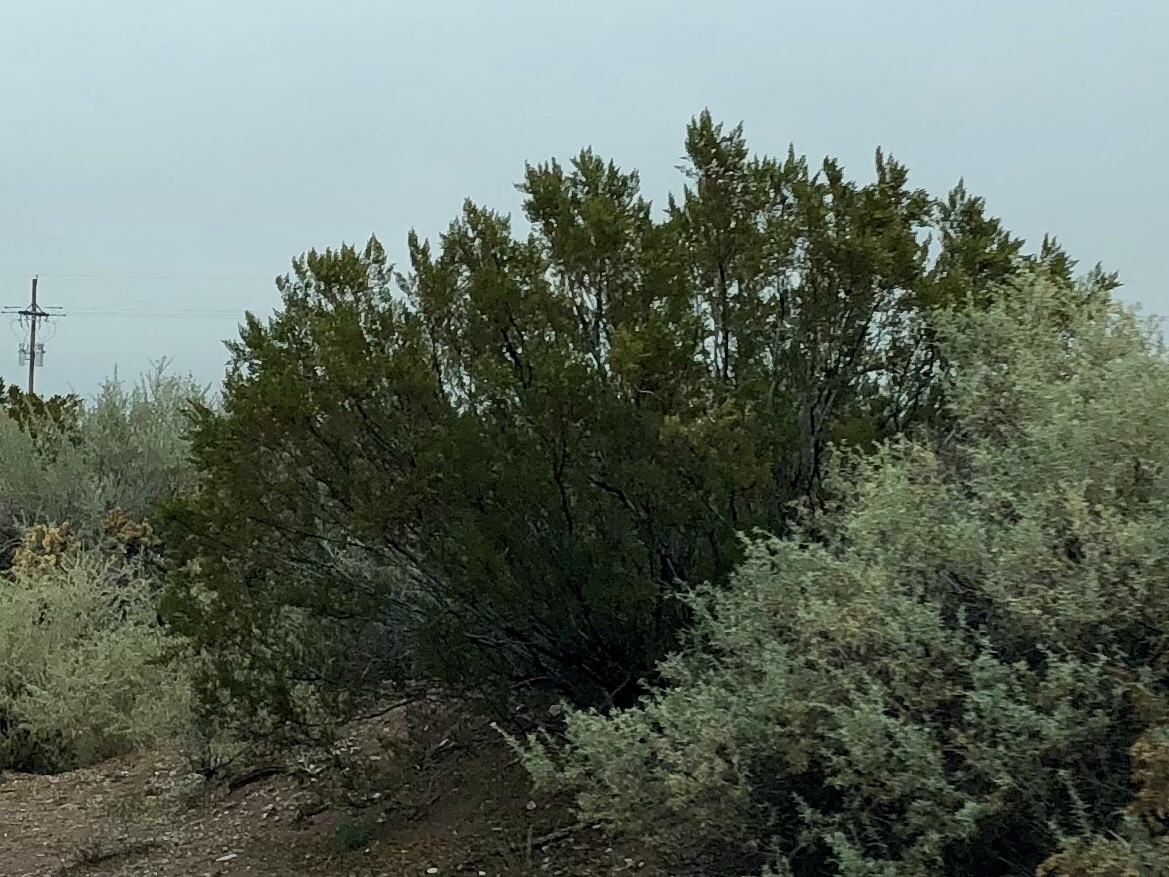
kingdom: Plantae
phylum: Tracheophyta
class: Magnoliopsida
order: Zygophyllales
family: Zygophyllaceae
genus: Larrea
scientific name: Larrea tridentata
